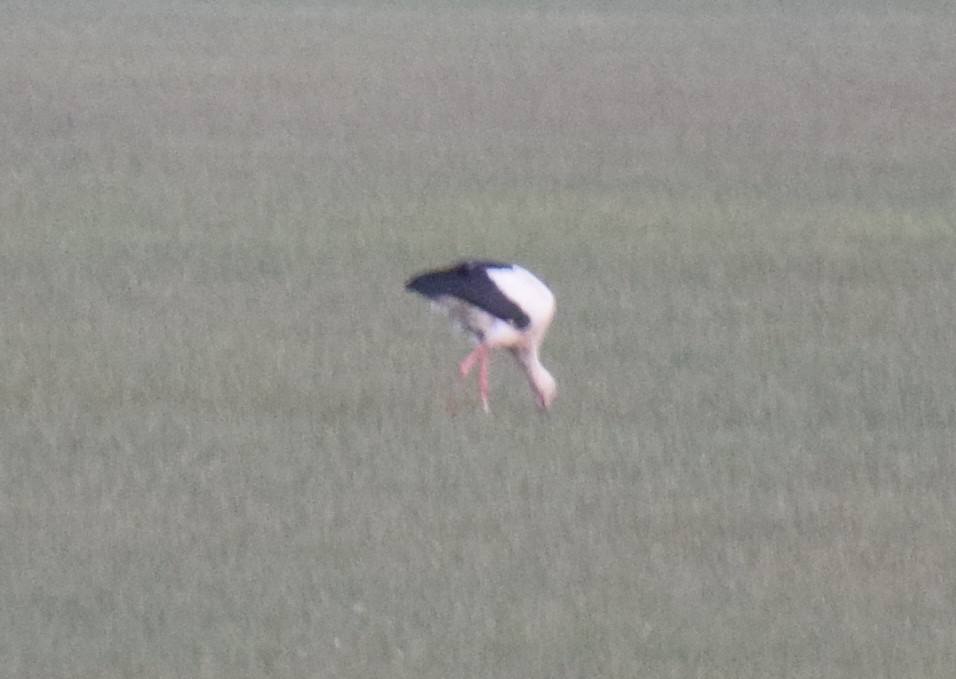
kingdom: Animalia
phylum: Chordata
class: Aves
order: Ciconiiformes
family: Ciconiidae
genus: Ciconia
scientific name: Ciconia ciconia
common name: White stork
